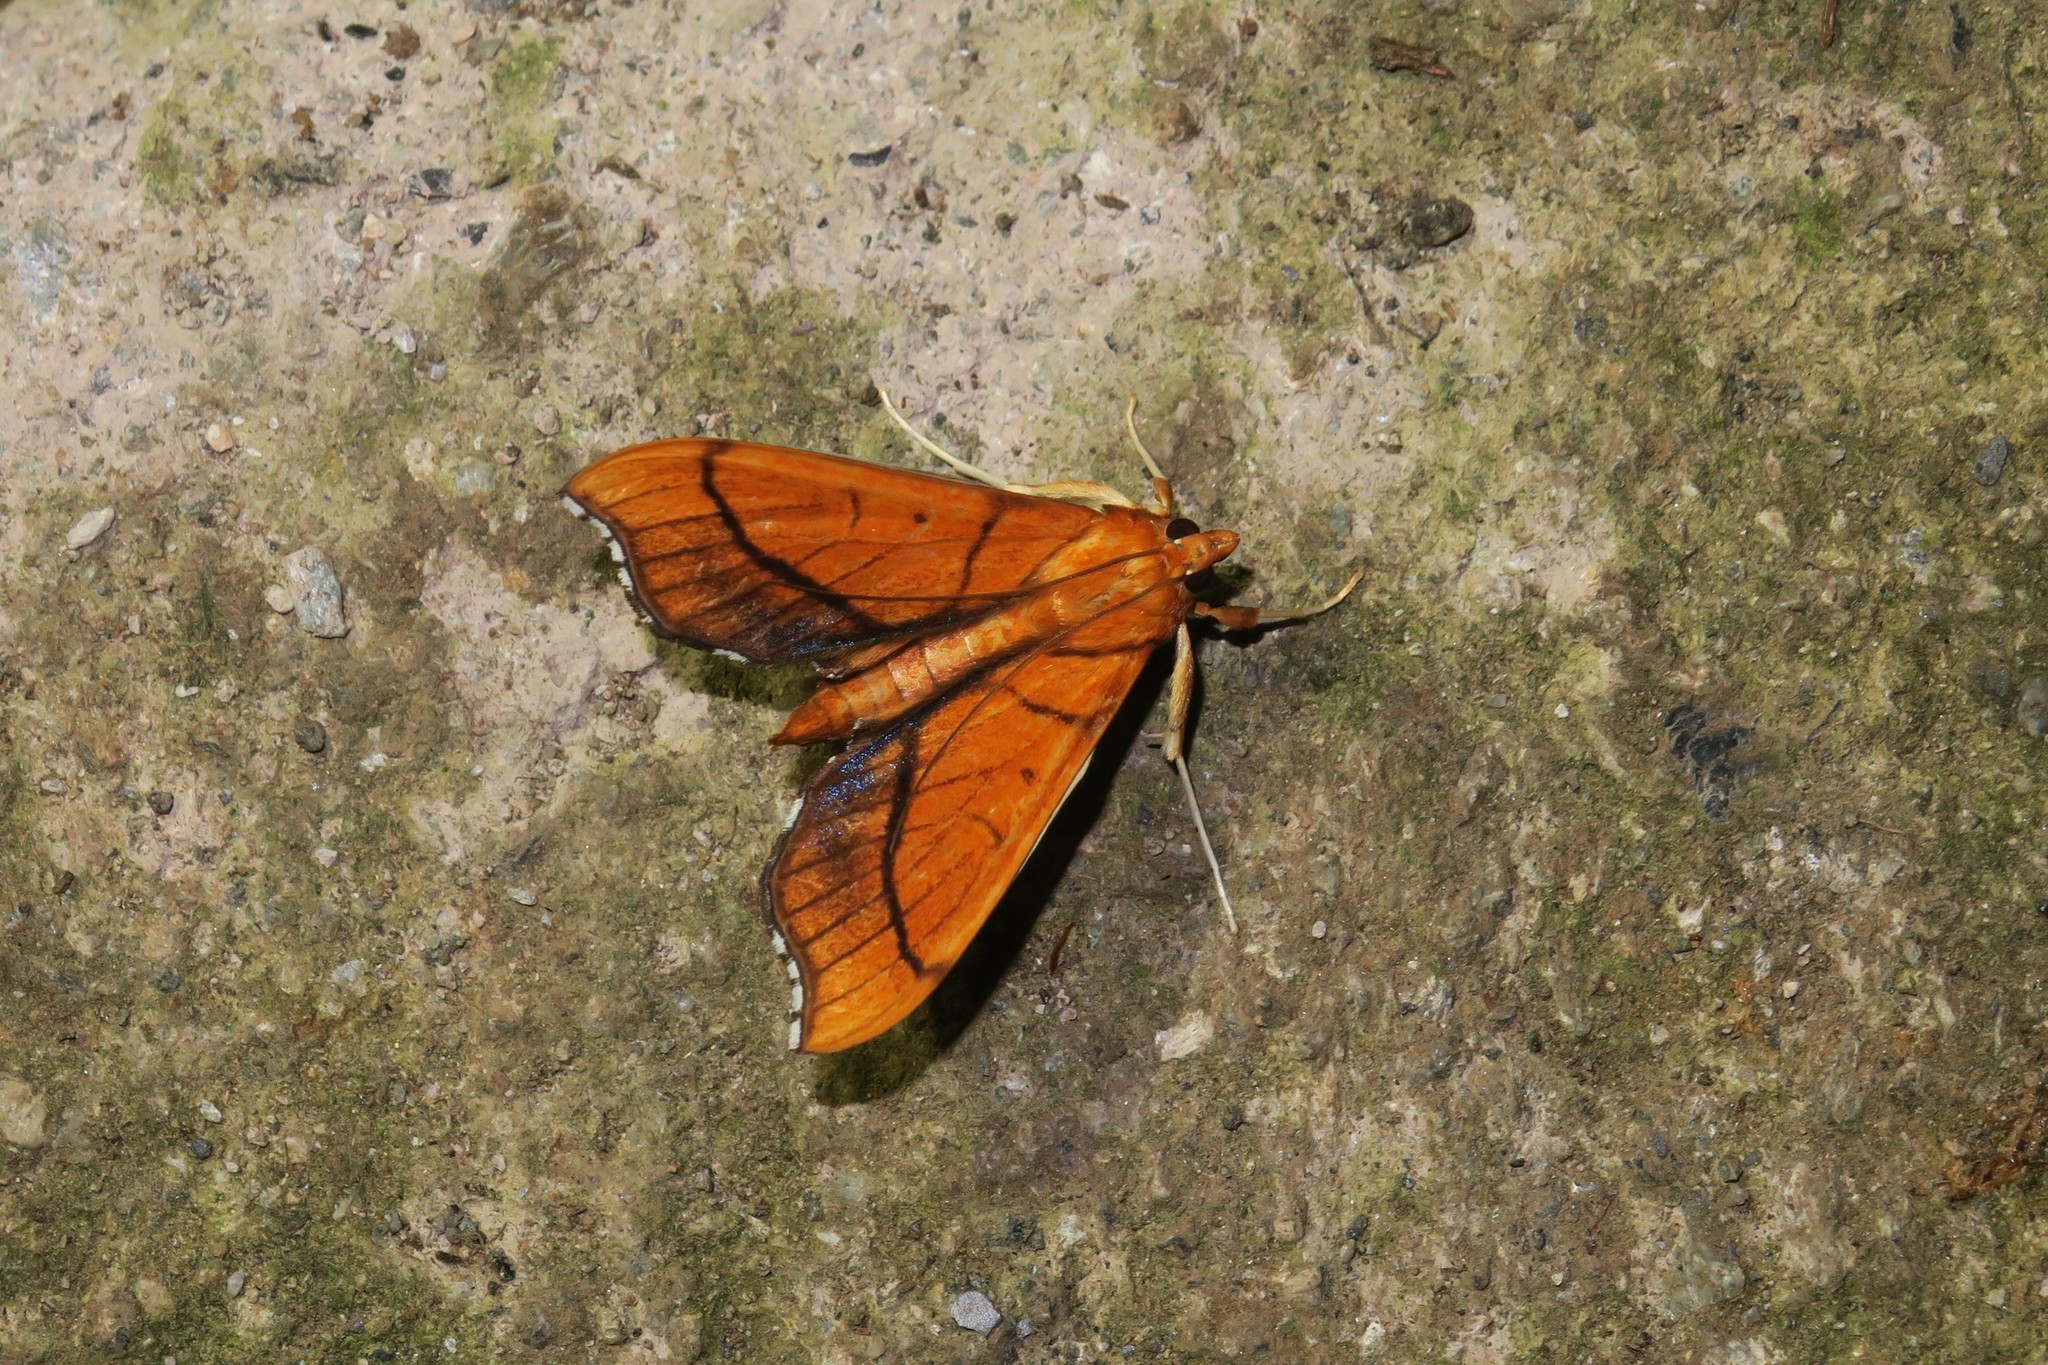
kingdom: Animalia
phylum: Arthropoda
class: Insecta
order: Lepidoptera
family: Crambidae
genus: Anarmodia
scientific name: Anarmodia arcadiusalis
